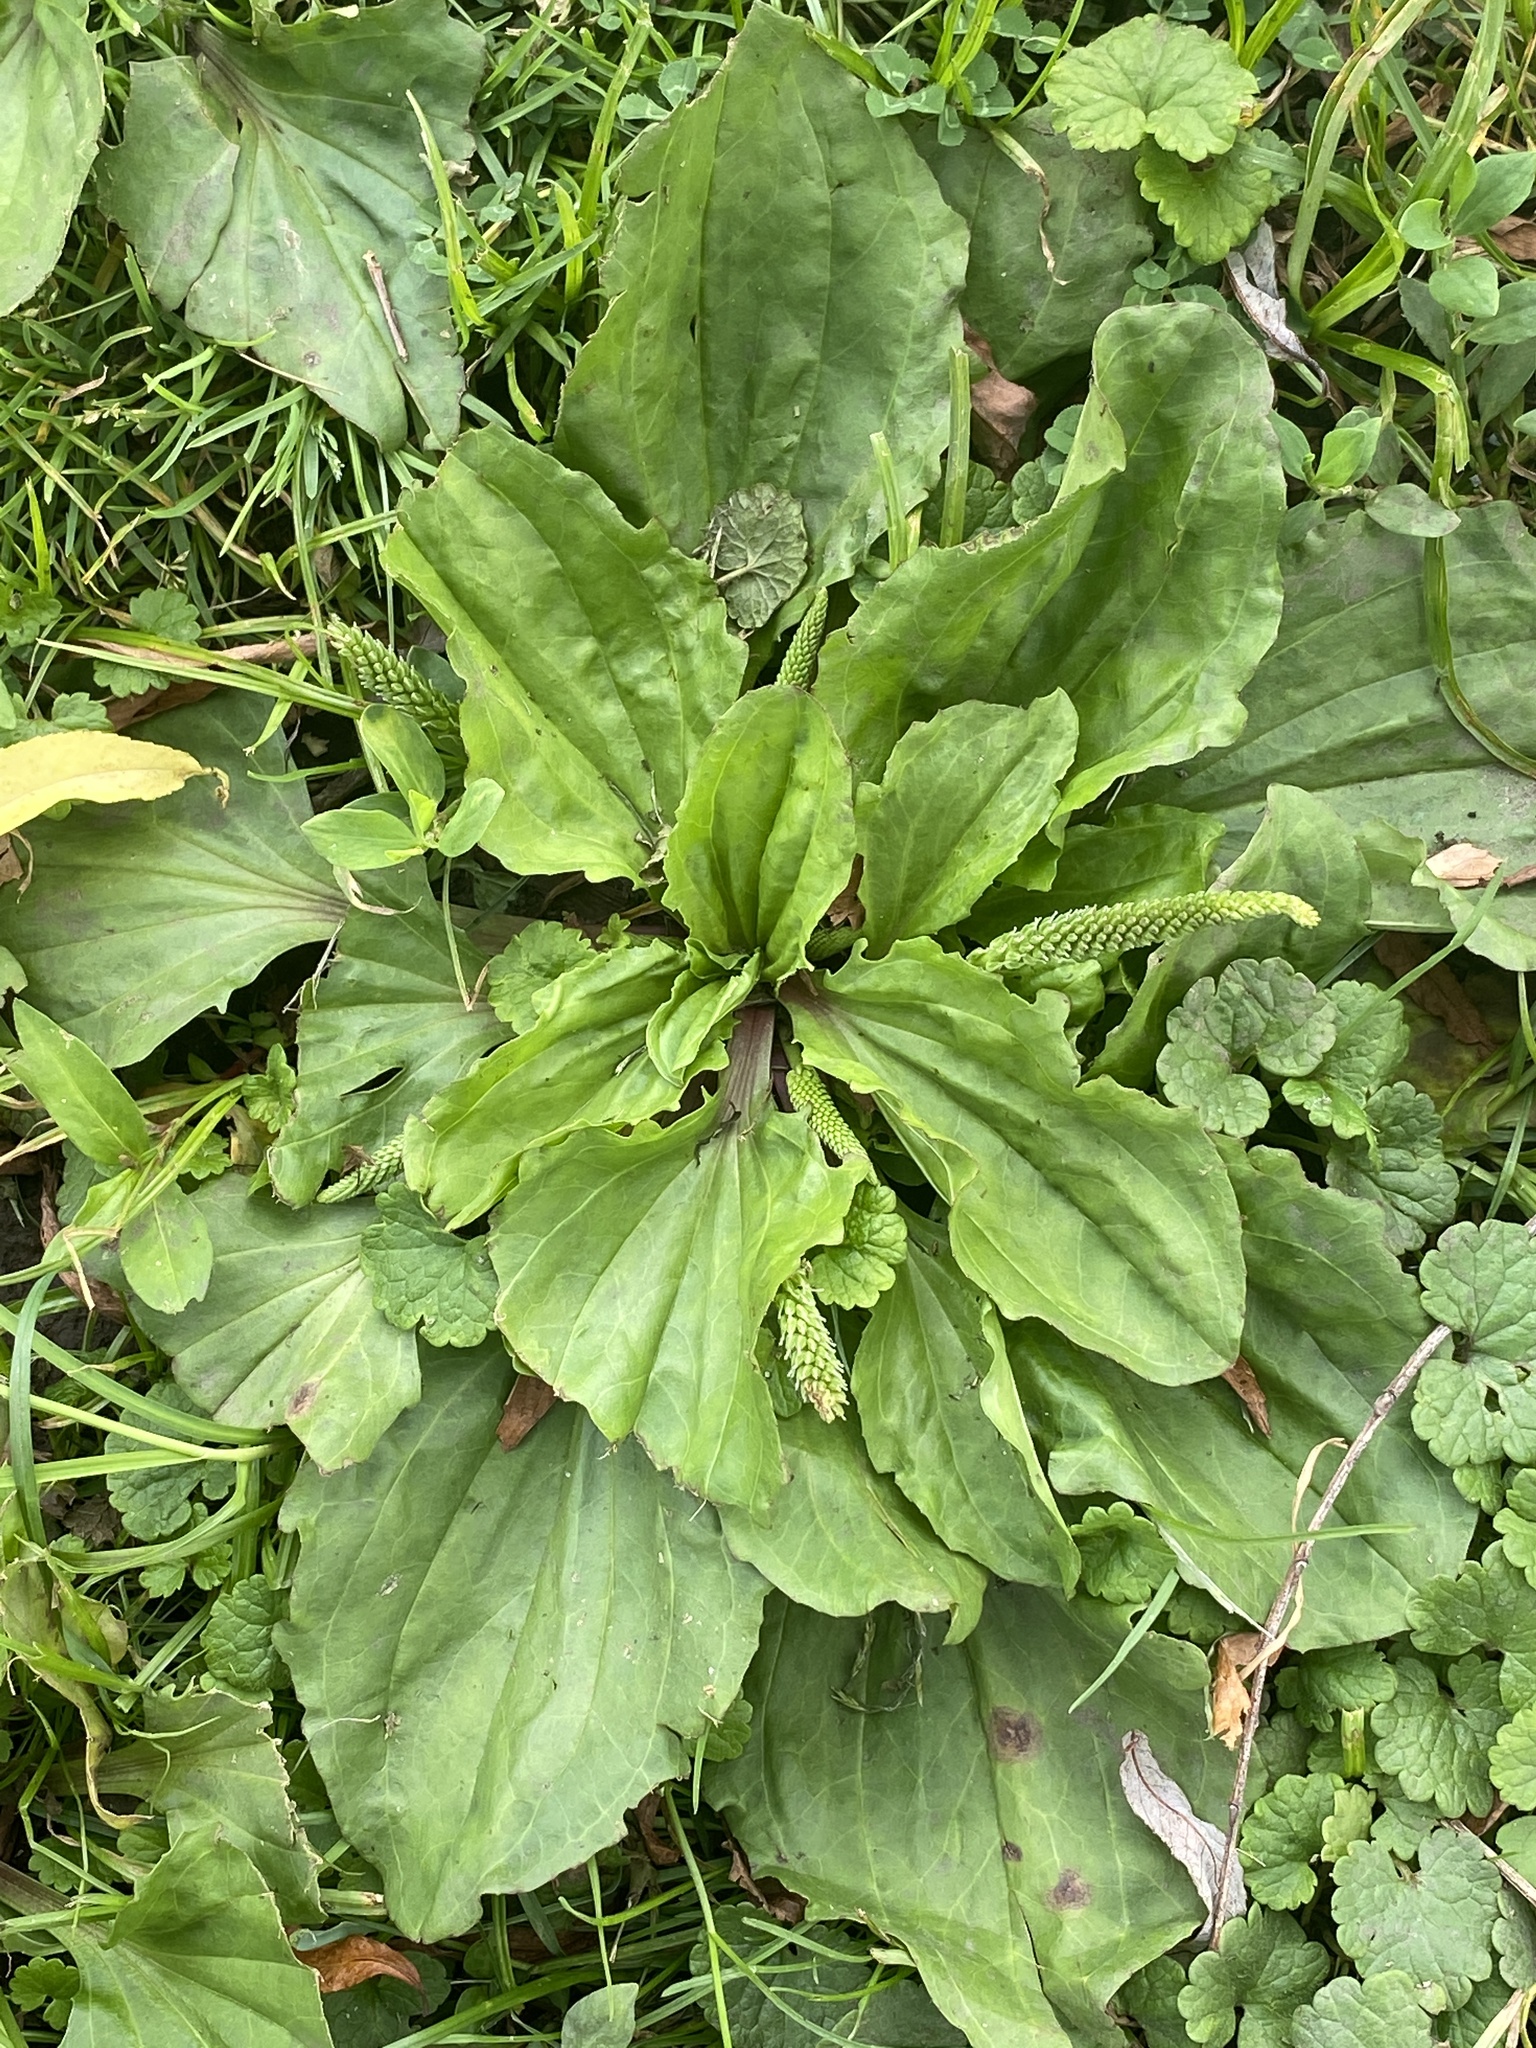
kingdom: Plantae
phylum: Tracheophyta
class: Magnoliopsida
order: Lamiales
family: Plantaginaceae
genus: Plantago
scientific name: Plantago rugelii
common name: American plantain
